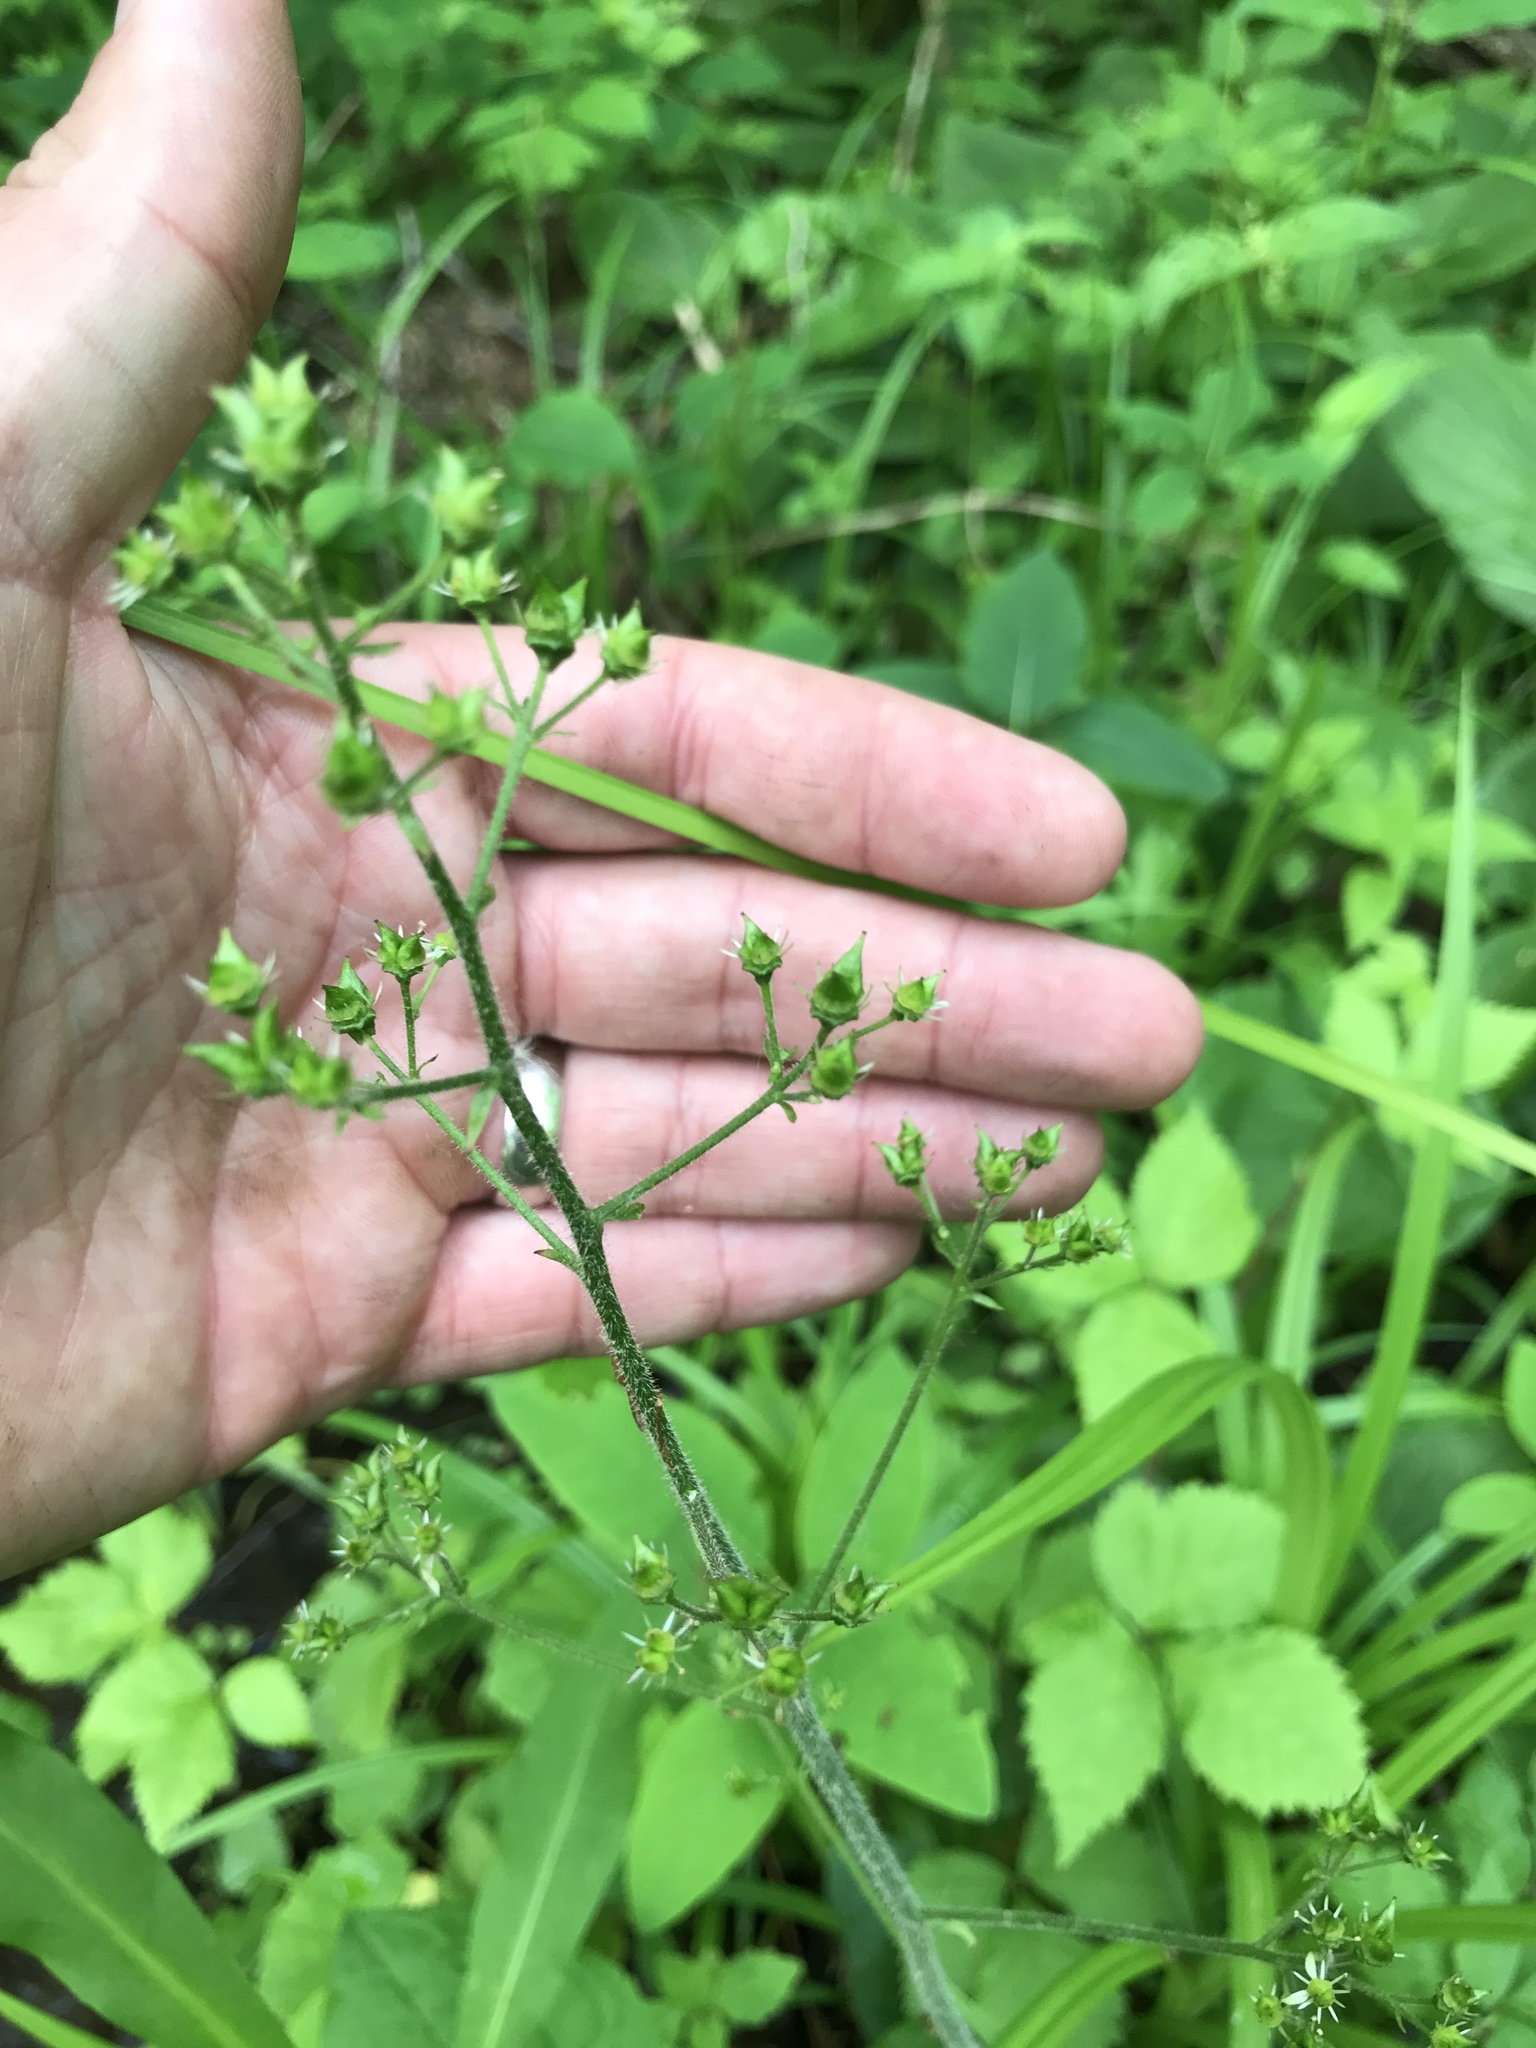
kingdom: Plantae
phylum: Tracheophyta
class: Magnoliopsida
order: Saxifragales
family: Saxifragaceae
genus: Micranthes
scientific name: Micranthes pensylvanica
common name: Marsh saxifrage
